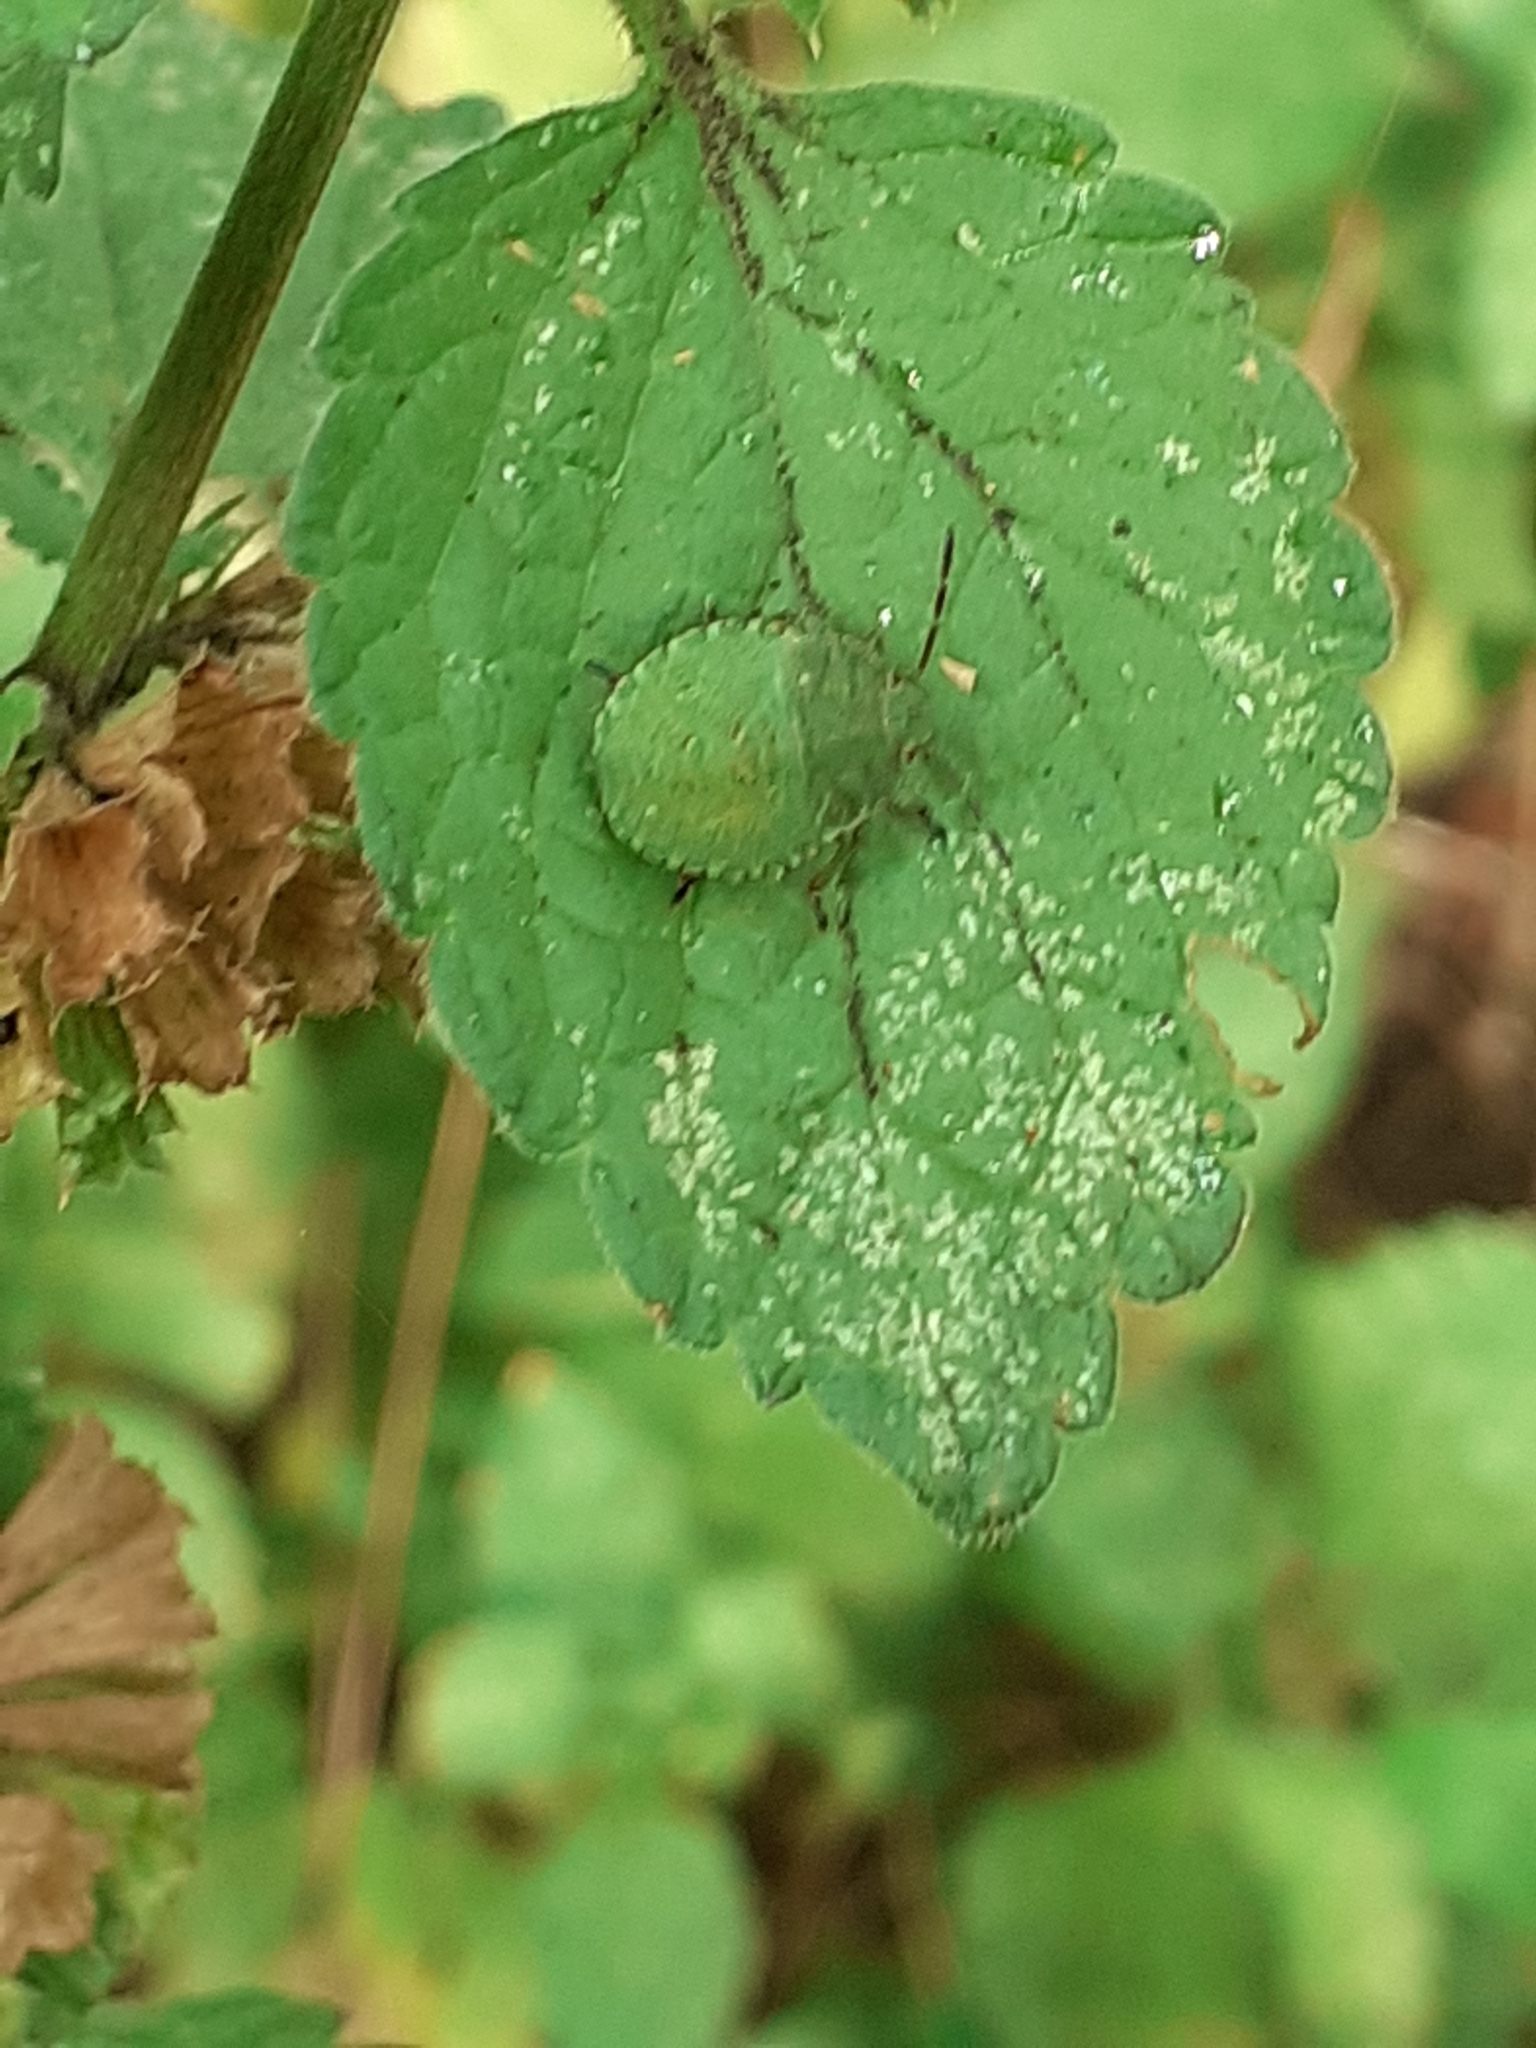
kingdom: Animalia
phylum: Arthropoda
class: Insecta
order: Hemiptera
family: Pentatomidae
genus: Palomena
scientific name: Palomena prasina
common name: Green shieldbug
